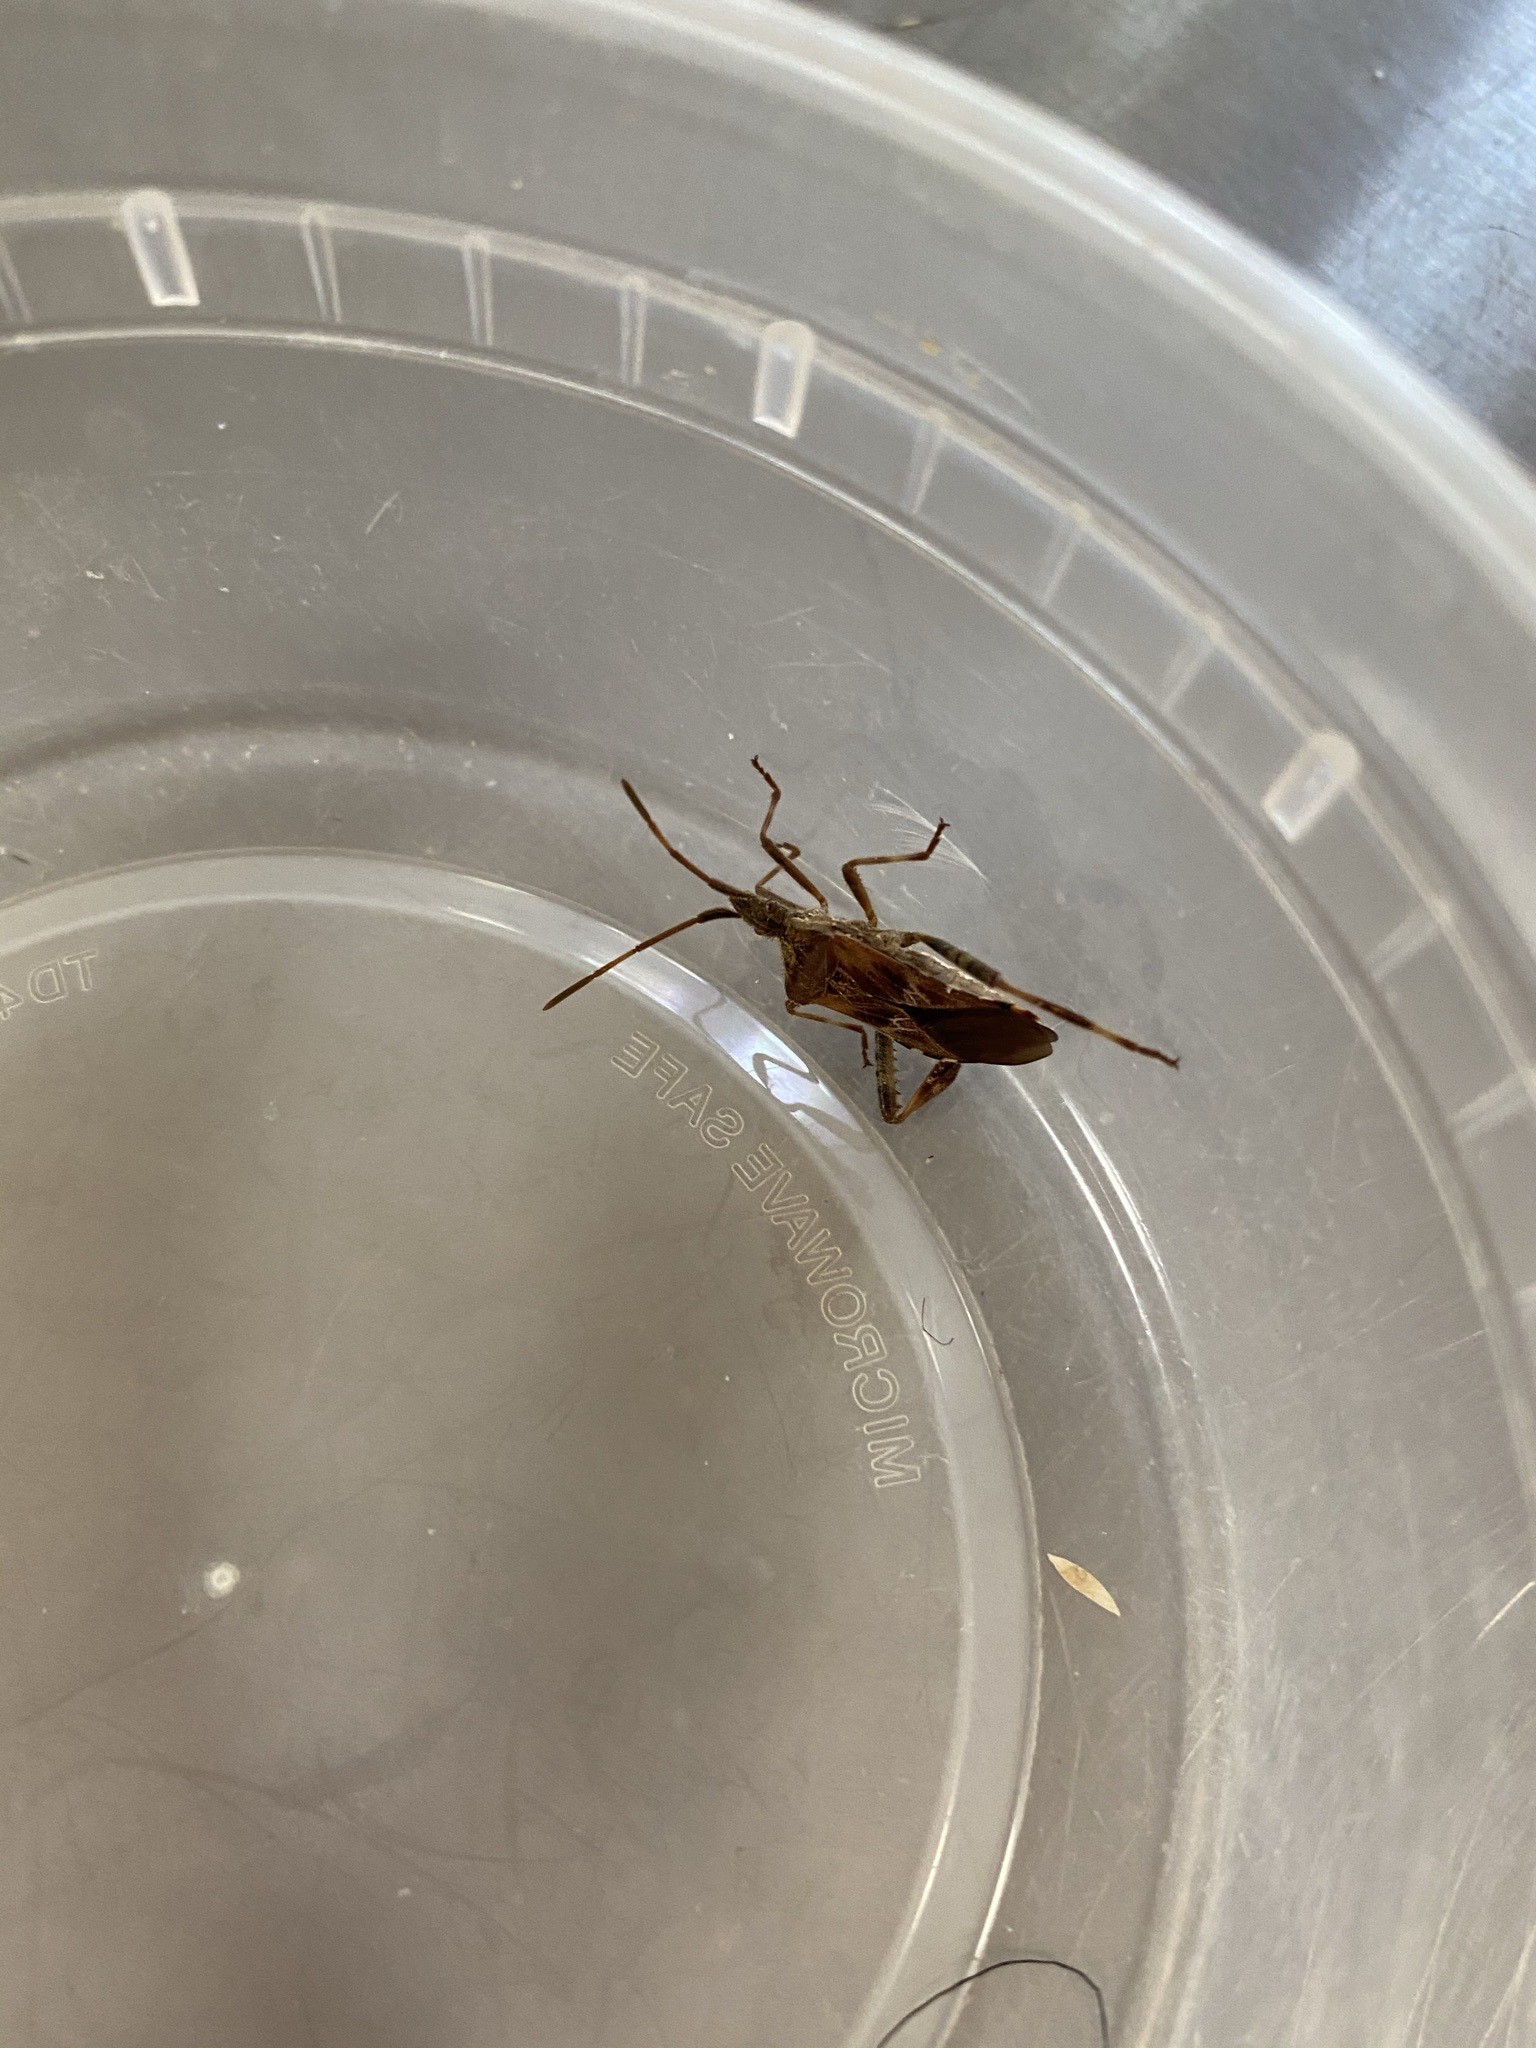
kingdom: Animalia
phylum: Arthropoda
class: Insecta
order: Hemiptera
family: Coreidae
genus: Leptoglossus
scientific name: Leptoglossus occidentalis
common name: Western conifer-seed bug
